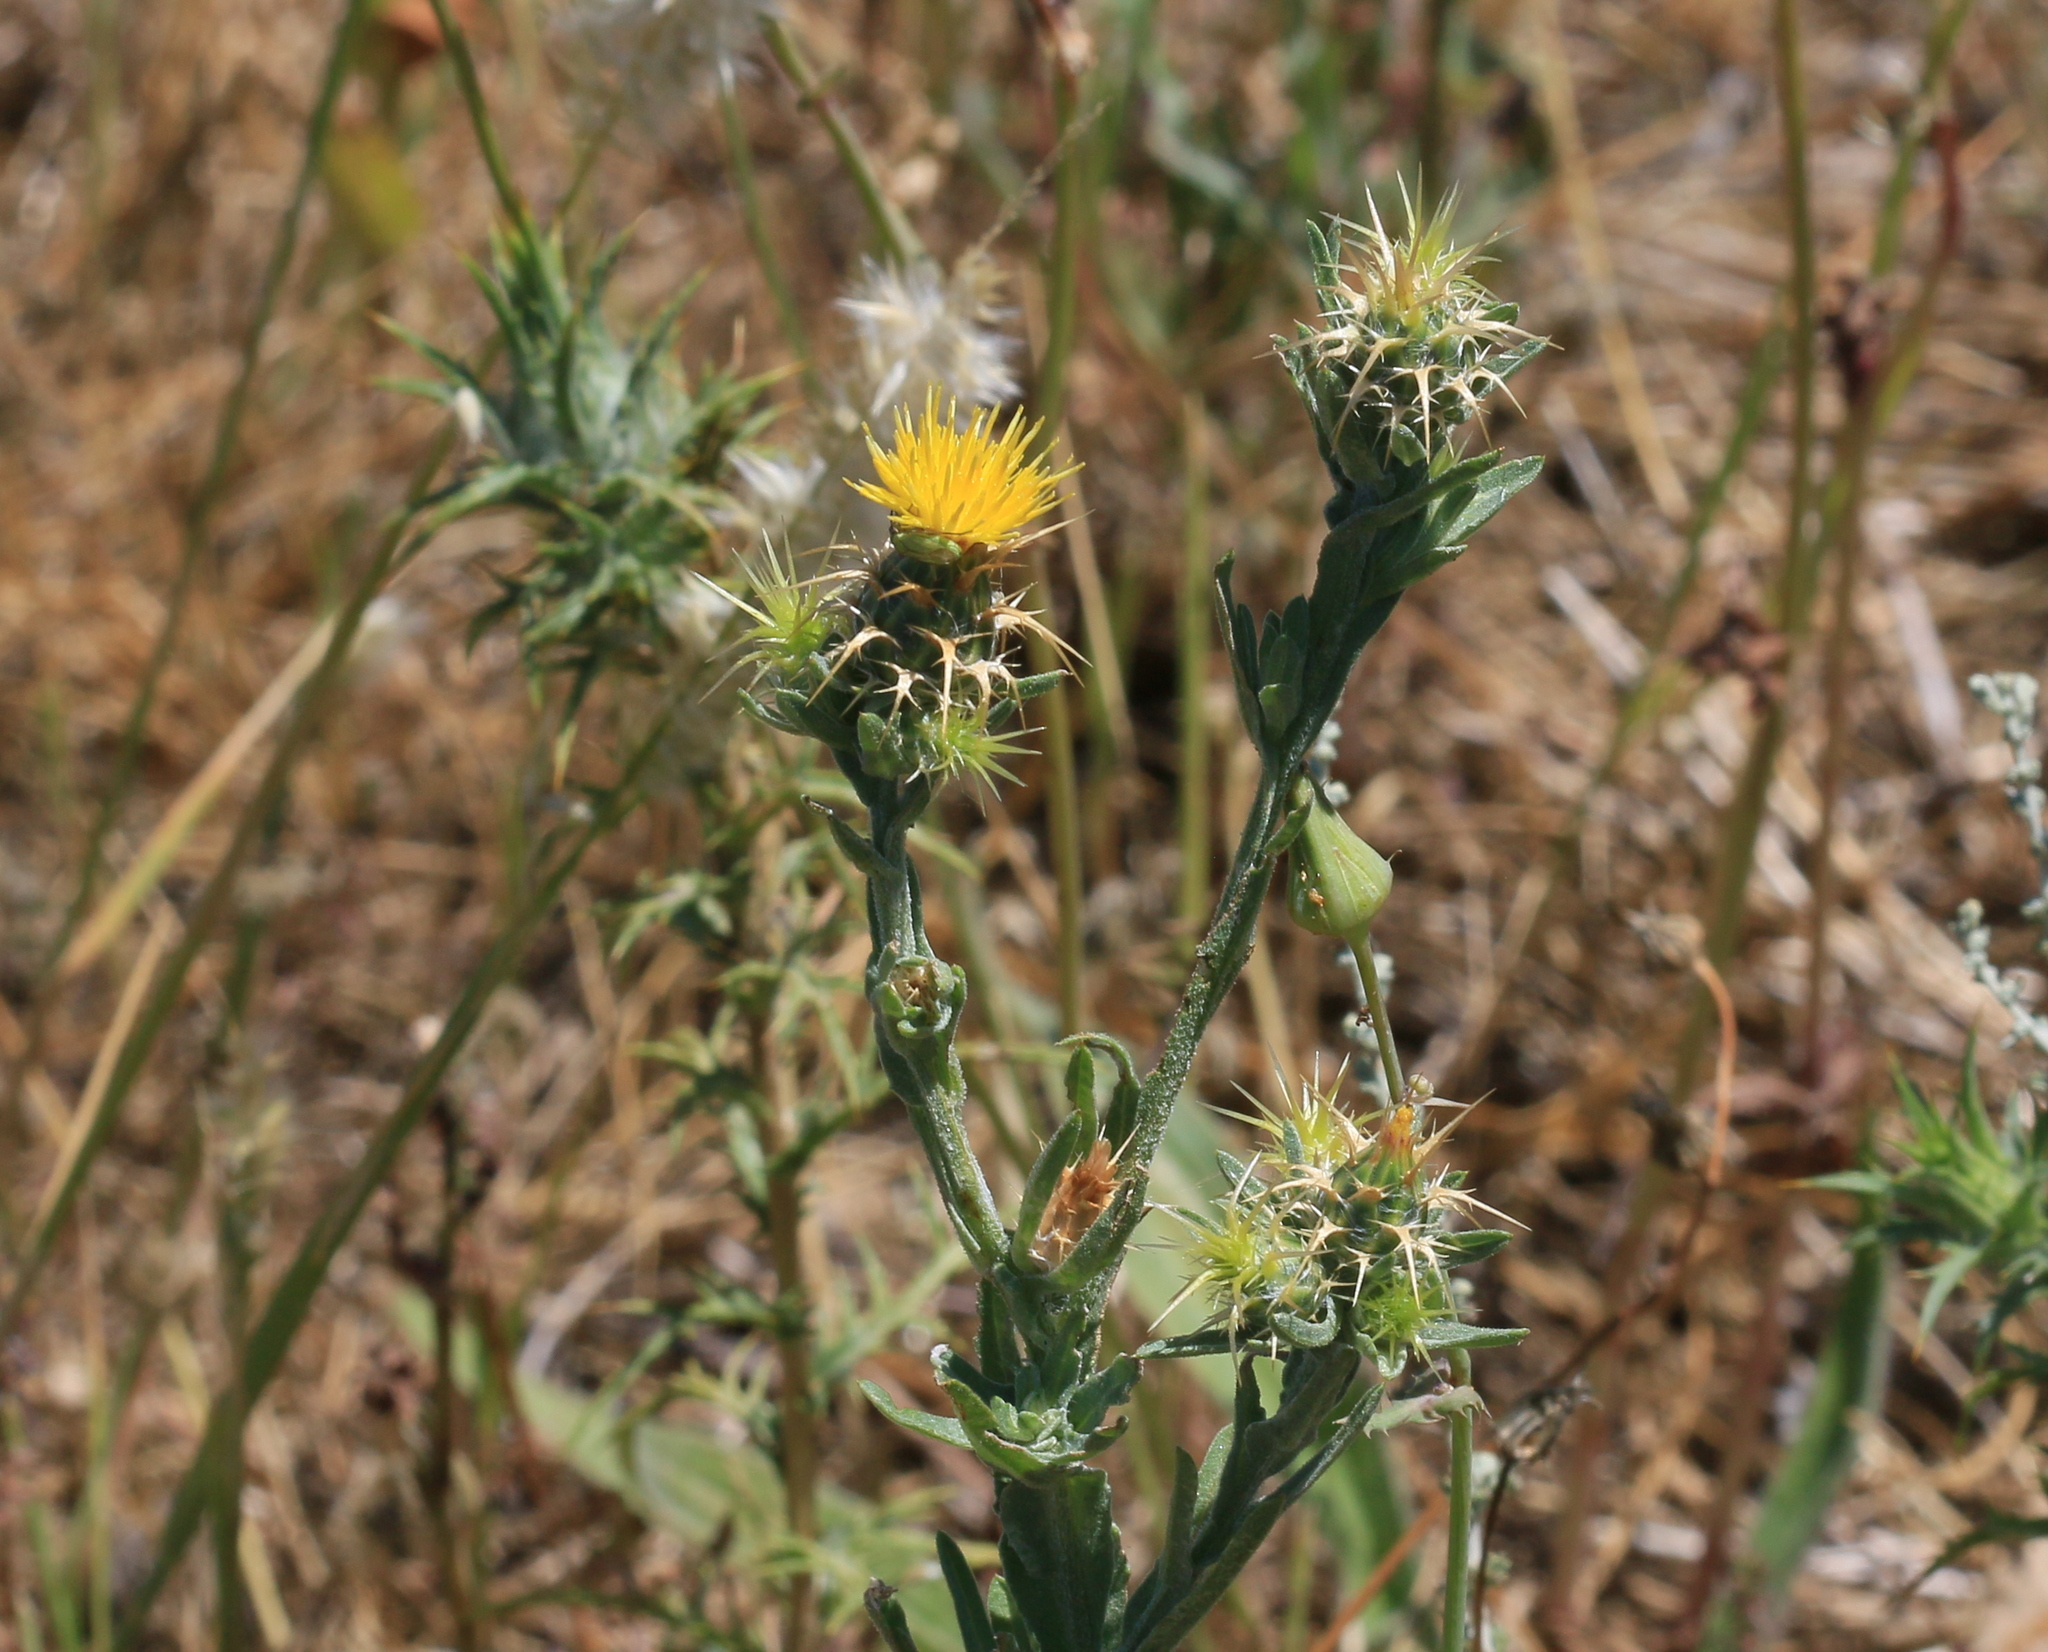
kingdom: Plantae
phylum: Tracheophyta
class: Magnoliopsida
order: Asterales
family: Asteraceae
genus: Centaurea
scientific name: Centaurea melitensis
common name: Maltese star-thistle
